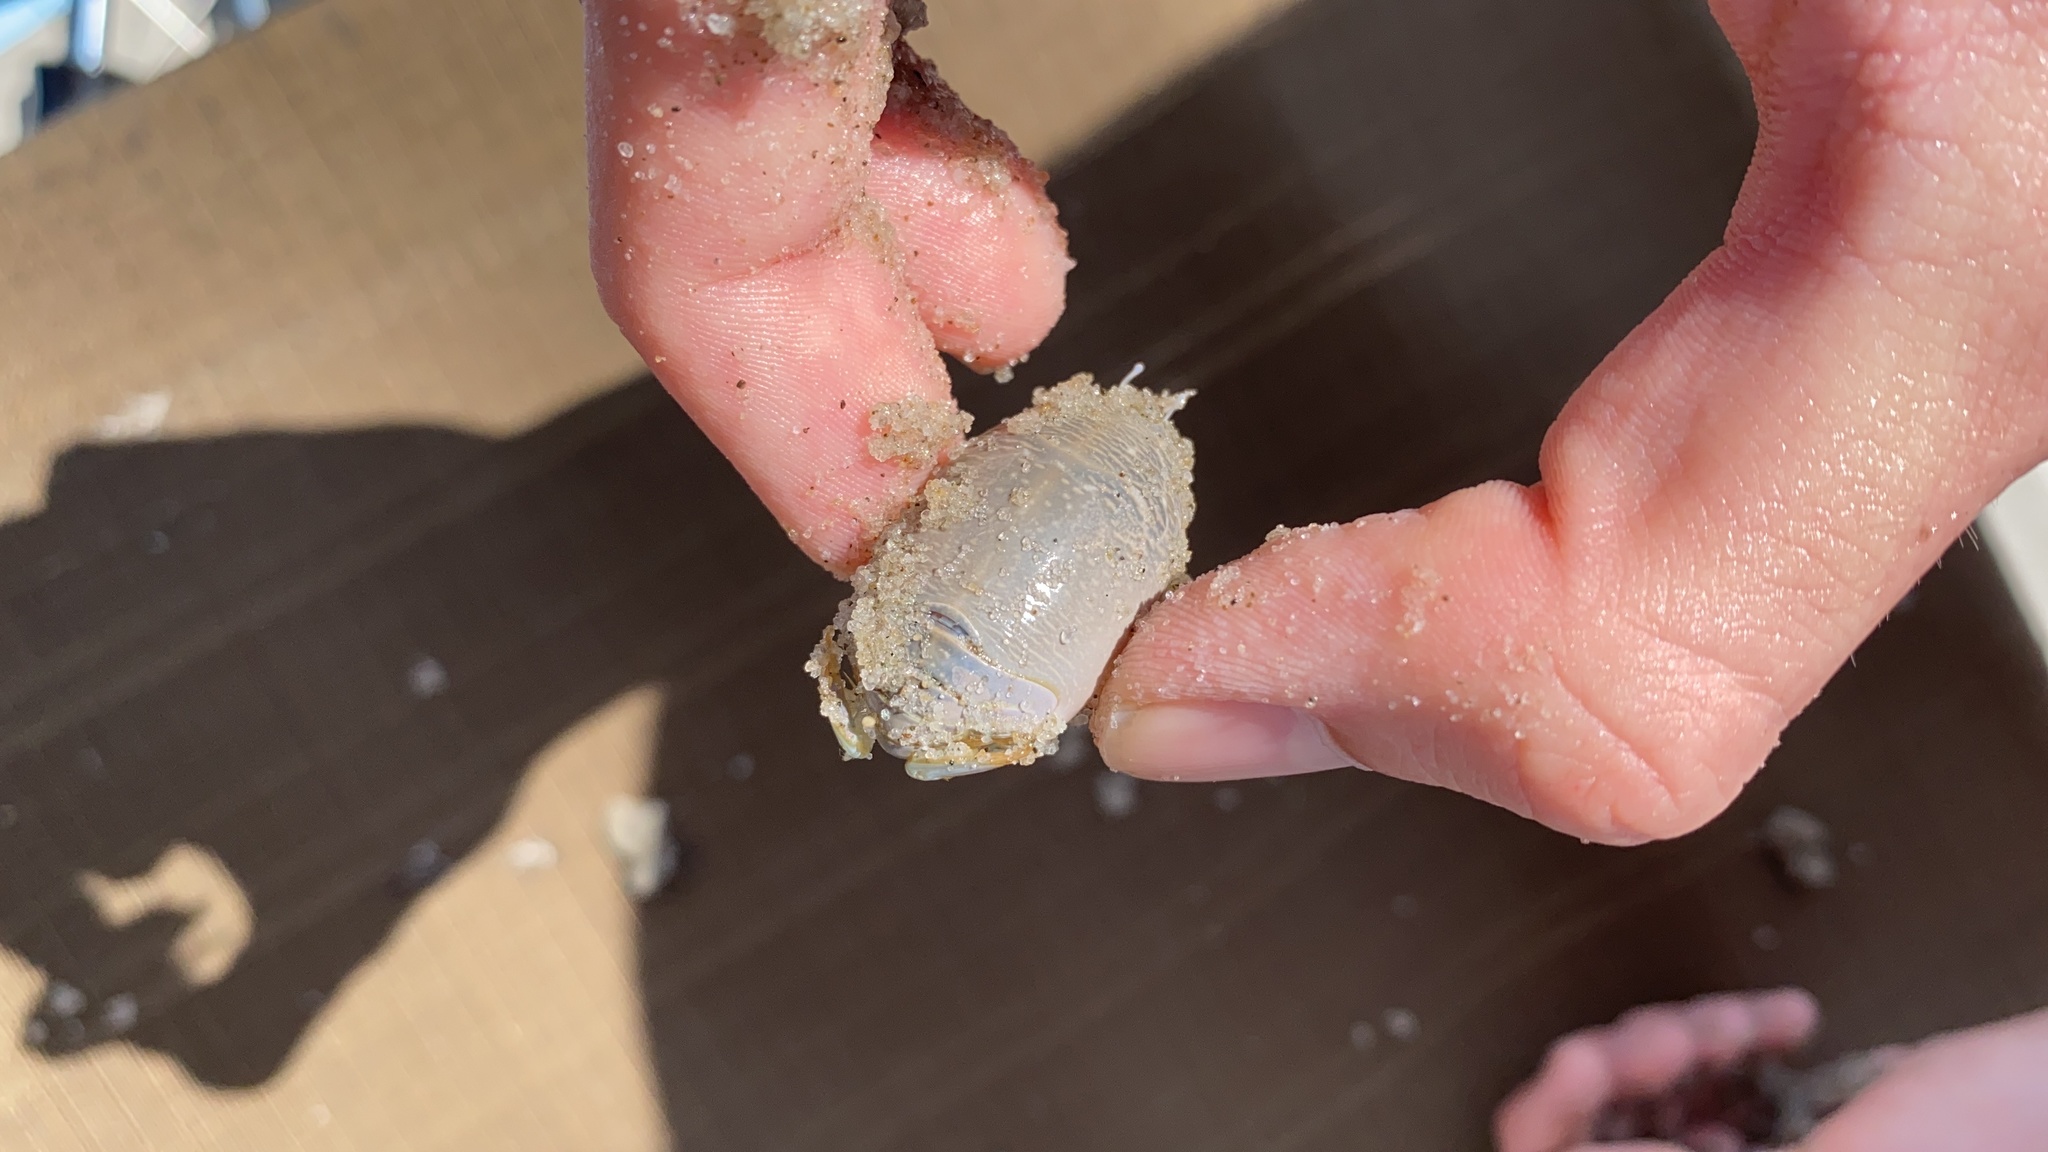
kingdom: Animalia
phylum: Arthropoda
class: Malacostraca
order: Decapoda
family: Hippidae
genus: Emerita
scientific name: Emerita talpoida
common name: Atlantic sand crab
